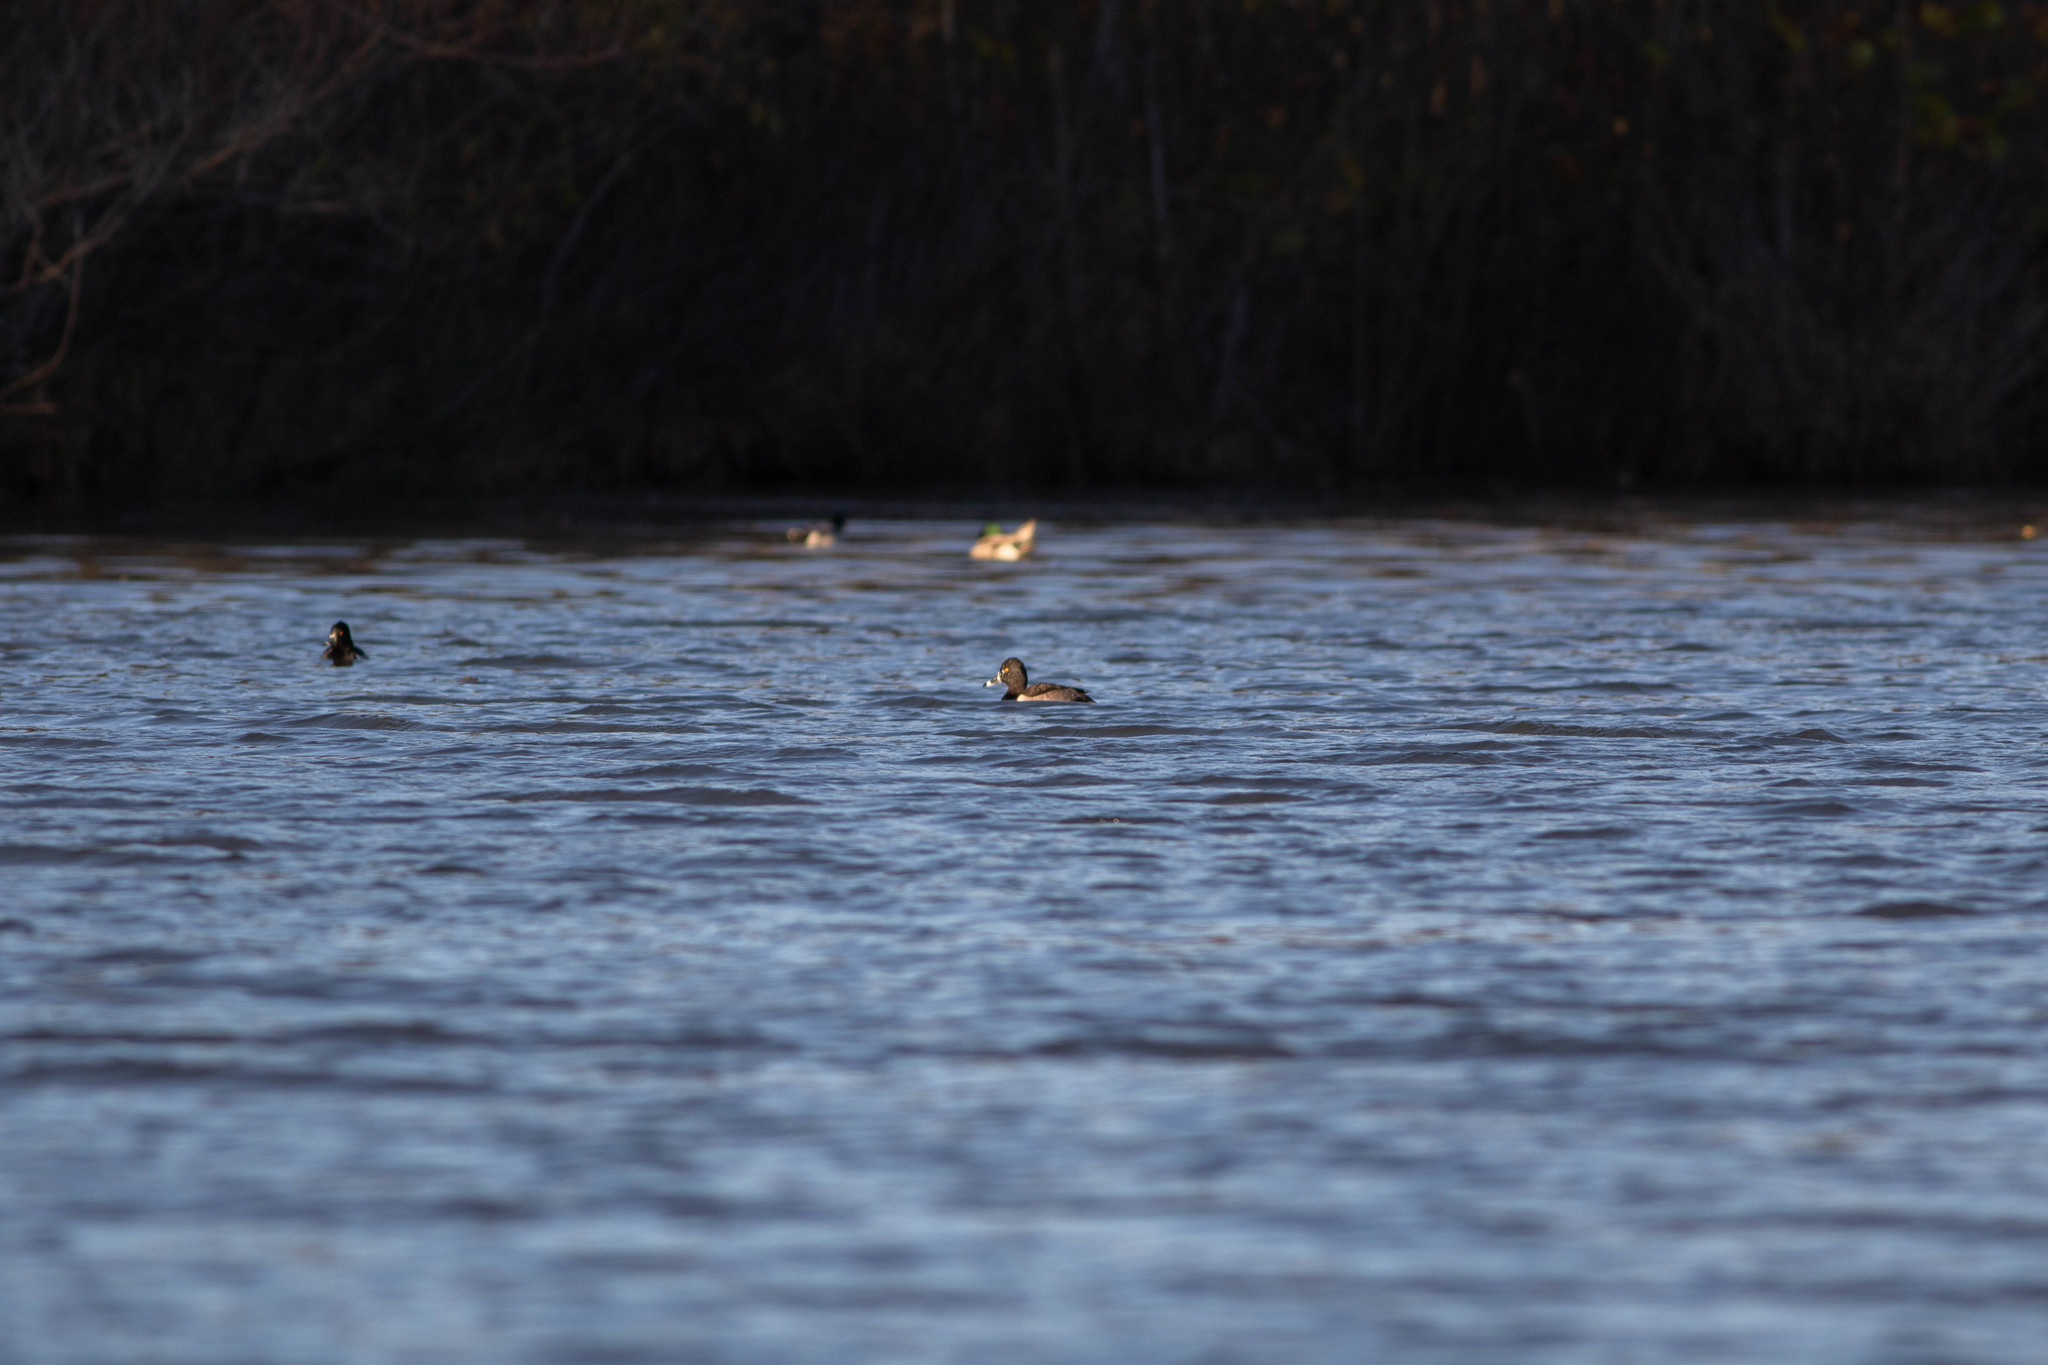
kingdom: Animalia
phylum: Chordata
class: Aves
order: Anseriformes
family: Anatidae
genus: Aythya
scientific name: Aythya collaris
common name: Ring-necked duck
